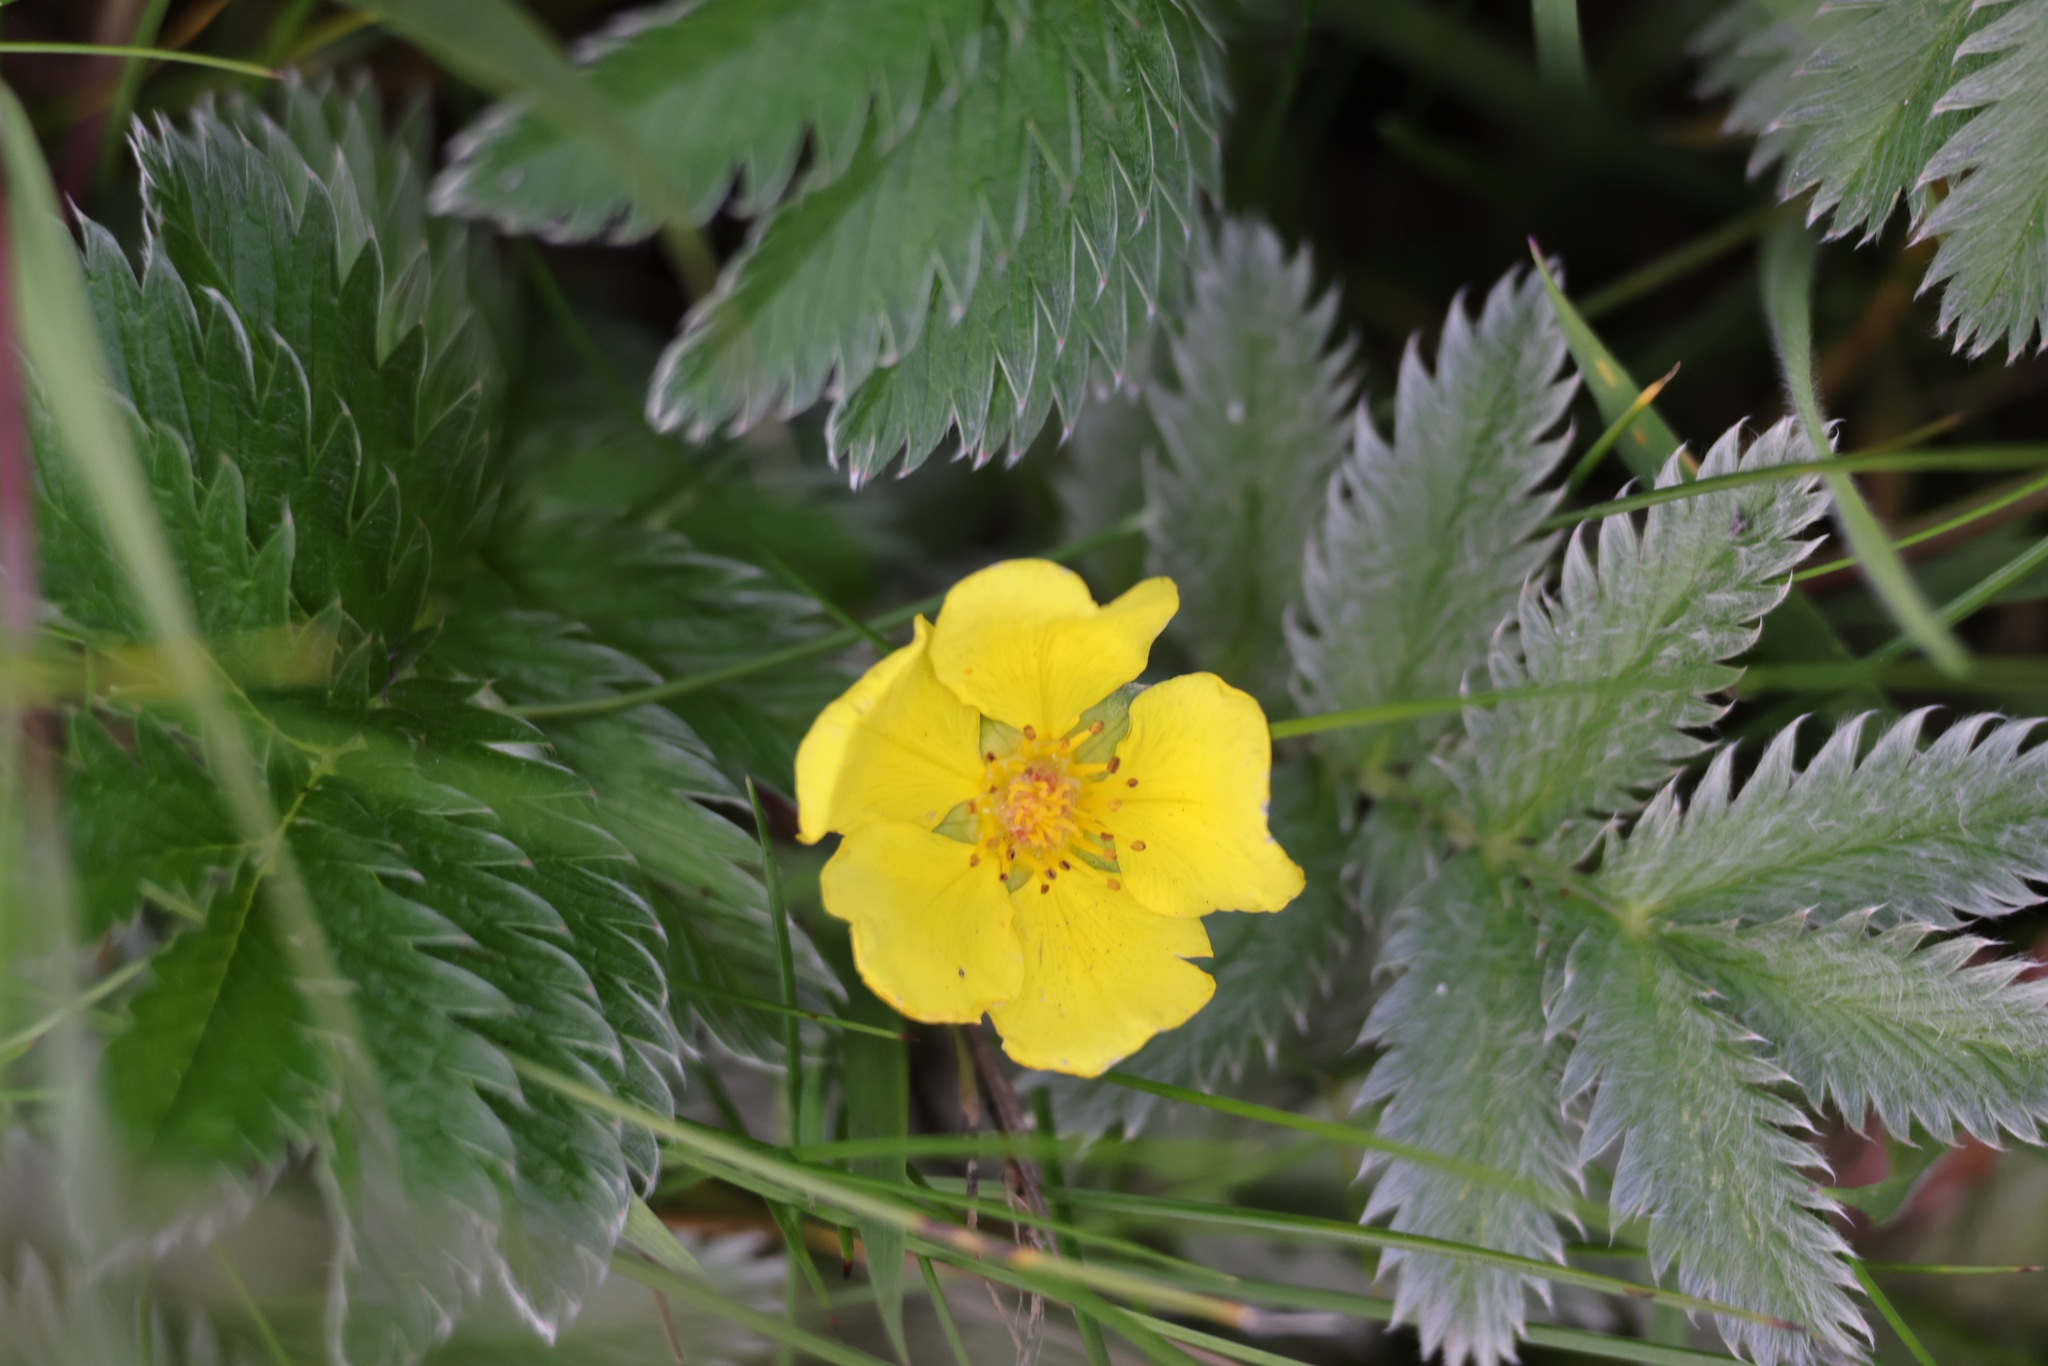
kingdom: Plantae
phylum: Tracheophyta
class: Magnoliopsida
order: Rosales
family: Rosaceae
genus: Argentina
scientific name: Argentina anserina
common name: Common silverweed
